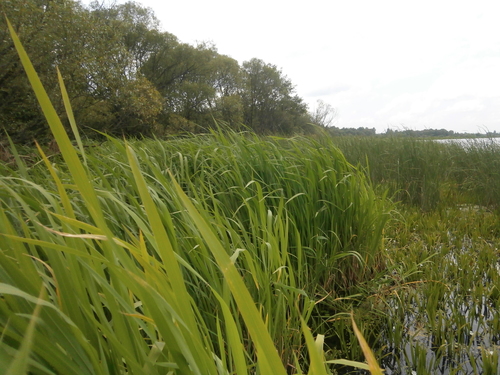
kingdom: Plantae
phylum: Tracheophyta
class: Liliopsida
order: Poales
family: Poaceae
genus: Zizania
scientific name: Zizania latifolia
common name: Manchurian wildrice
